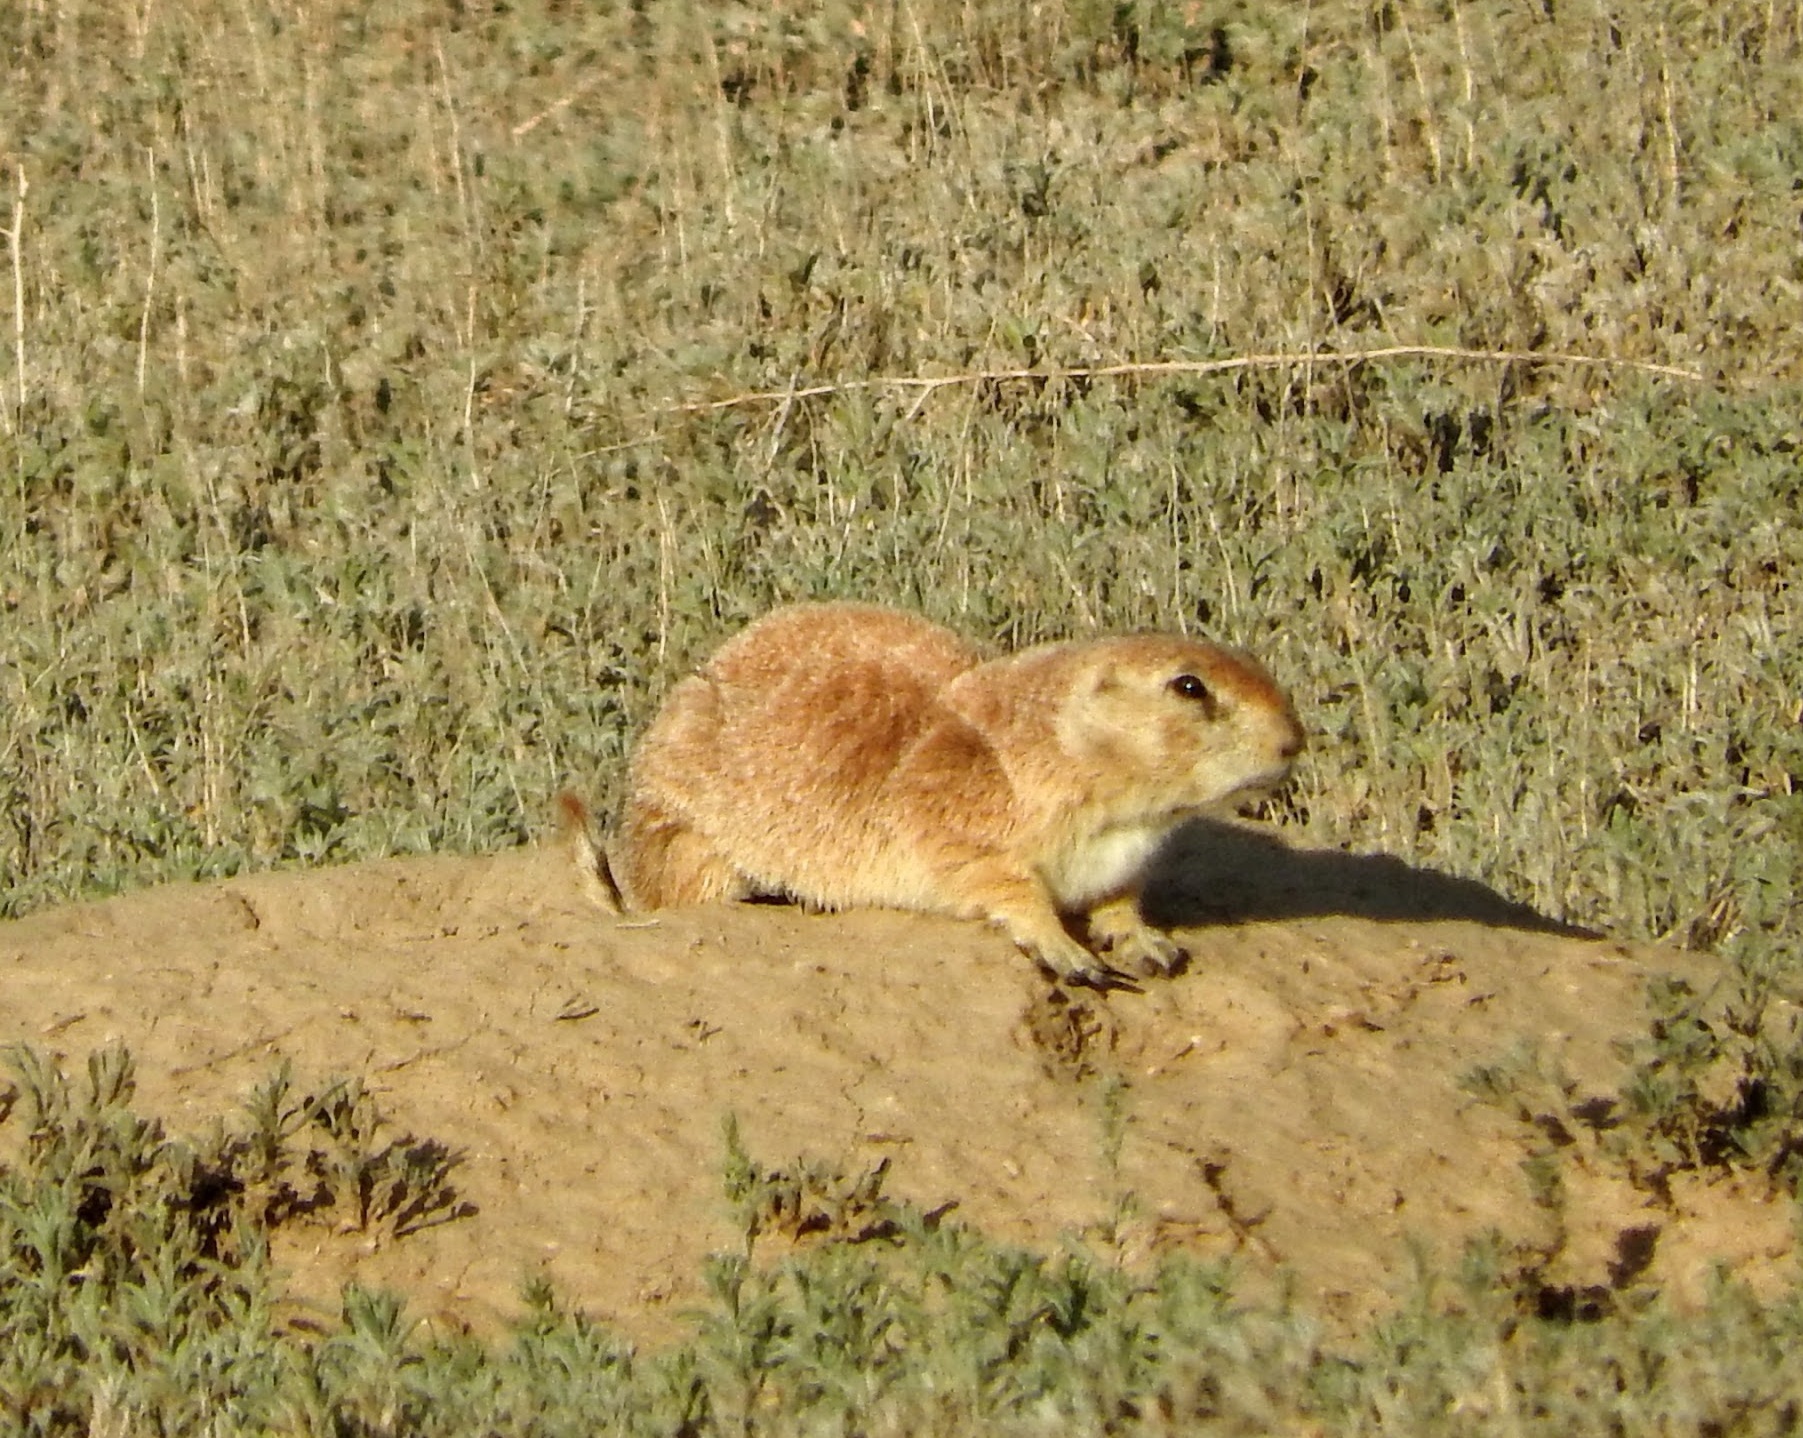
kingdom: Animalia
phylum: Chordata
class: Mammalia
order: Rodentia
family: Sciuridae
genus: Cynomys
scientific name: Cynomys ludovicianus
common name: Black-tailed prairie dog
